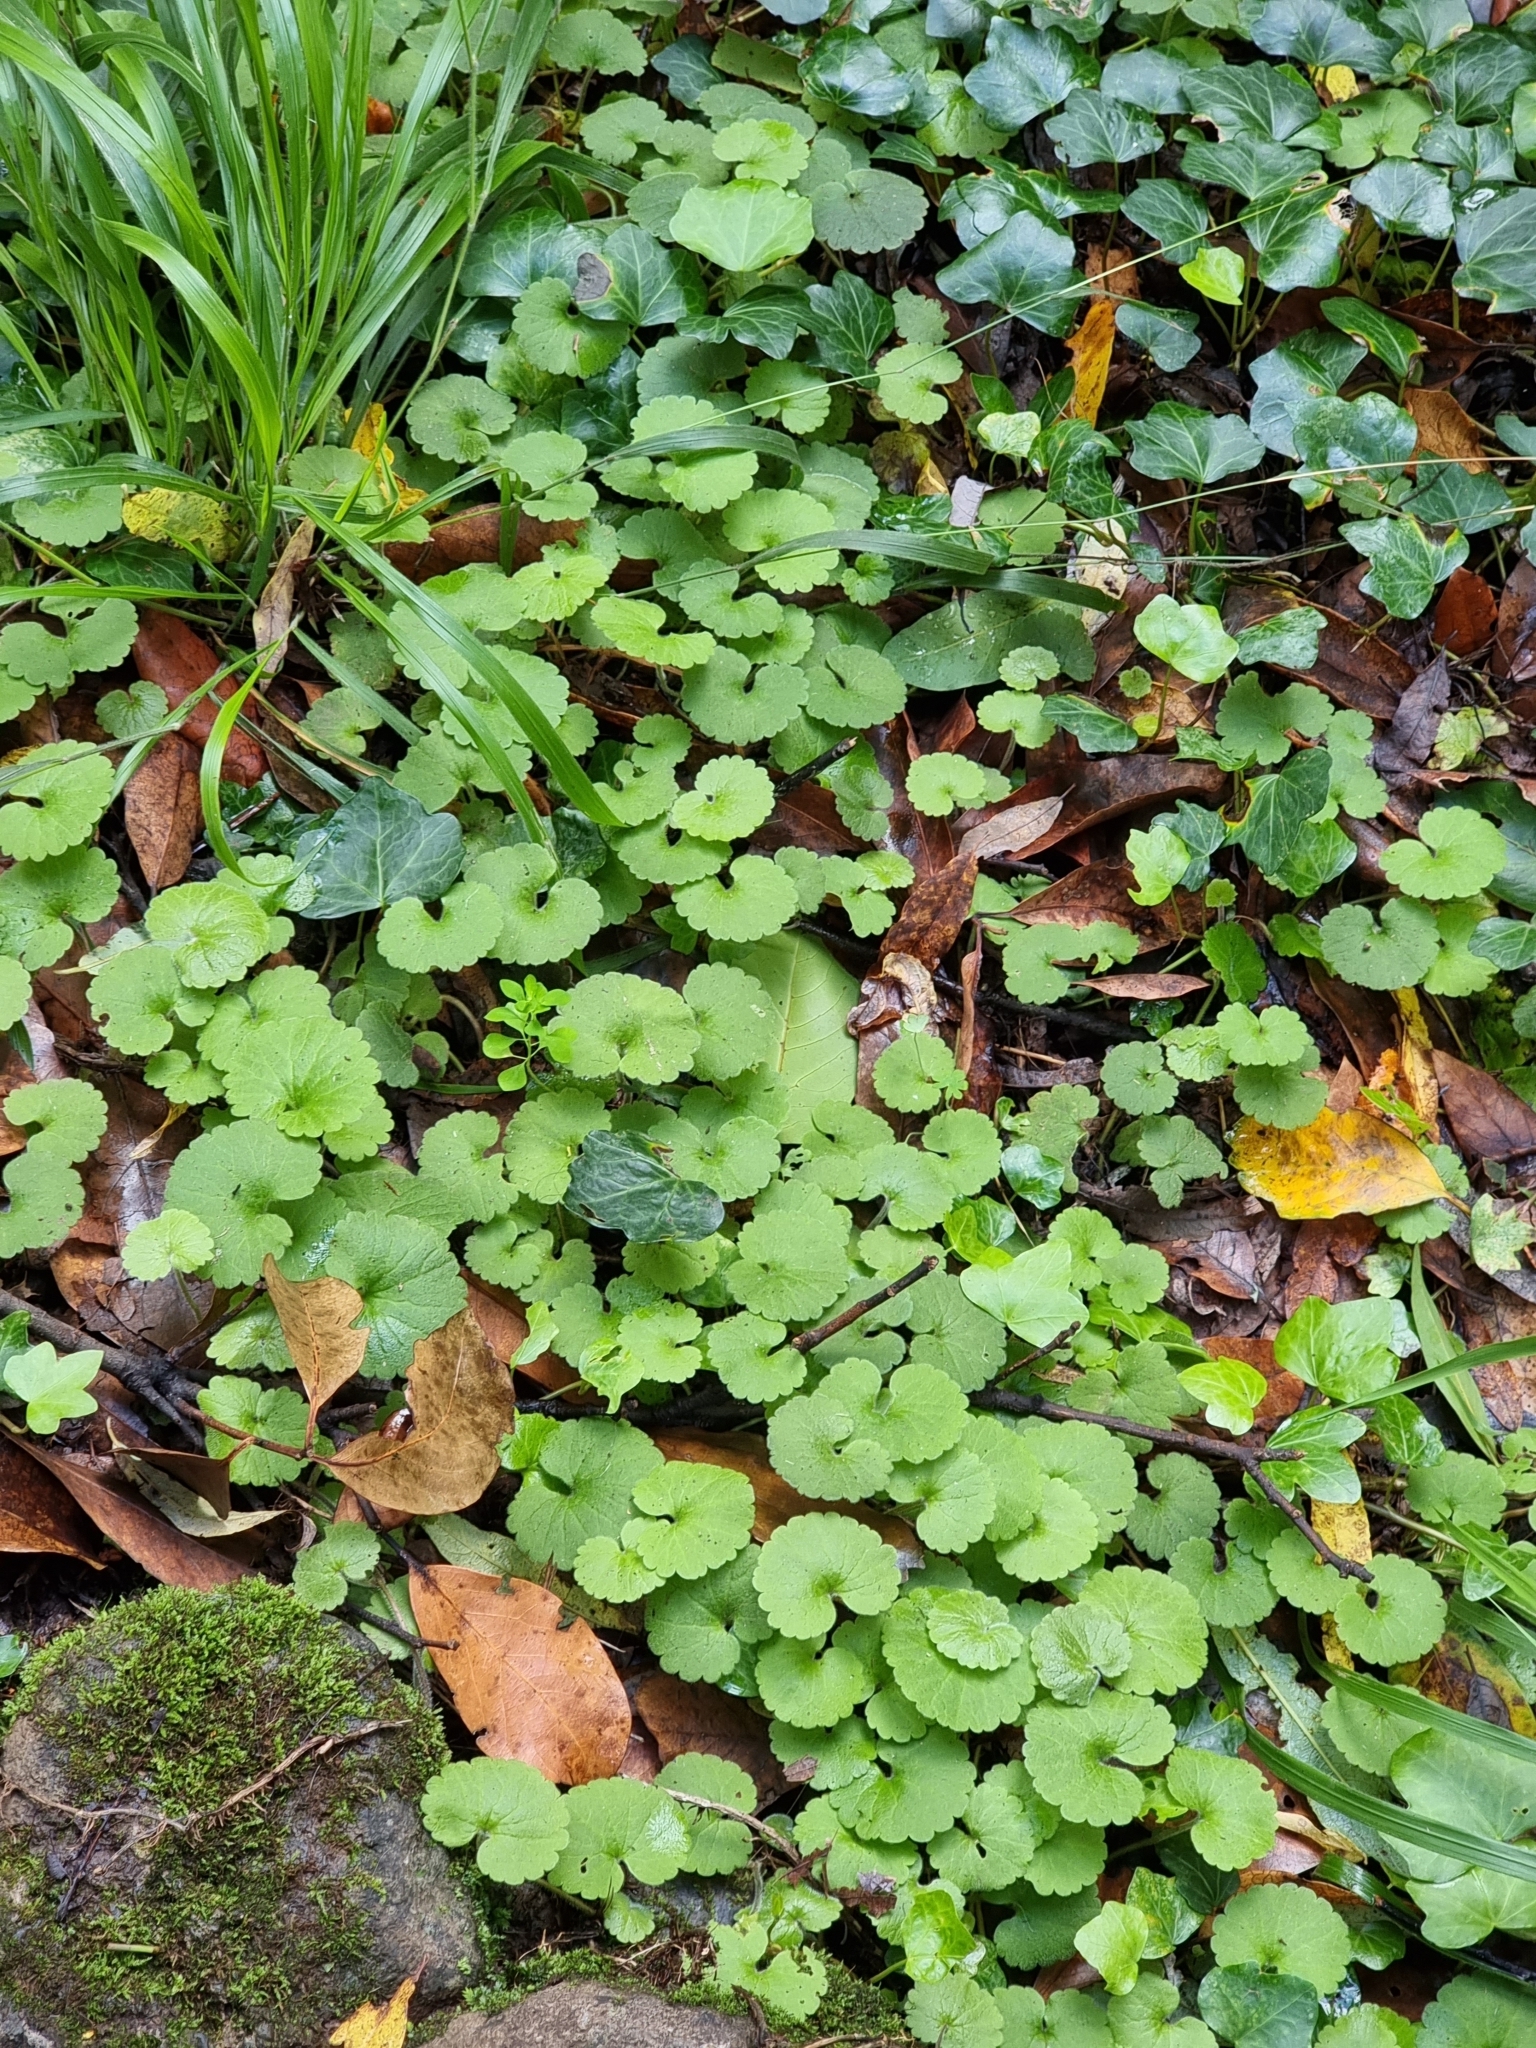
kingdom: Plantae
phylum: Tracheophyta
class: Magnoliopsida
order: Lamiales
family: Plantaginaceae
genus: Sibthorpia
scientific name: Sibthorpia peregrina
